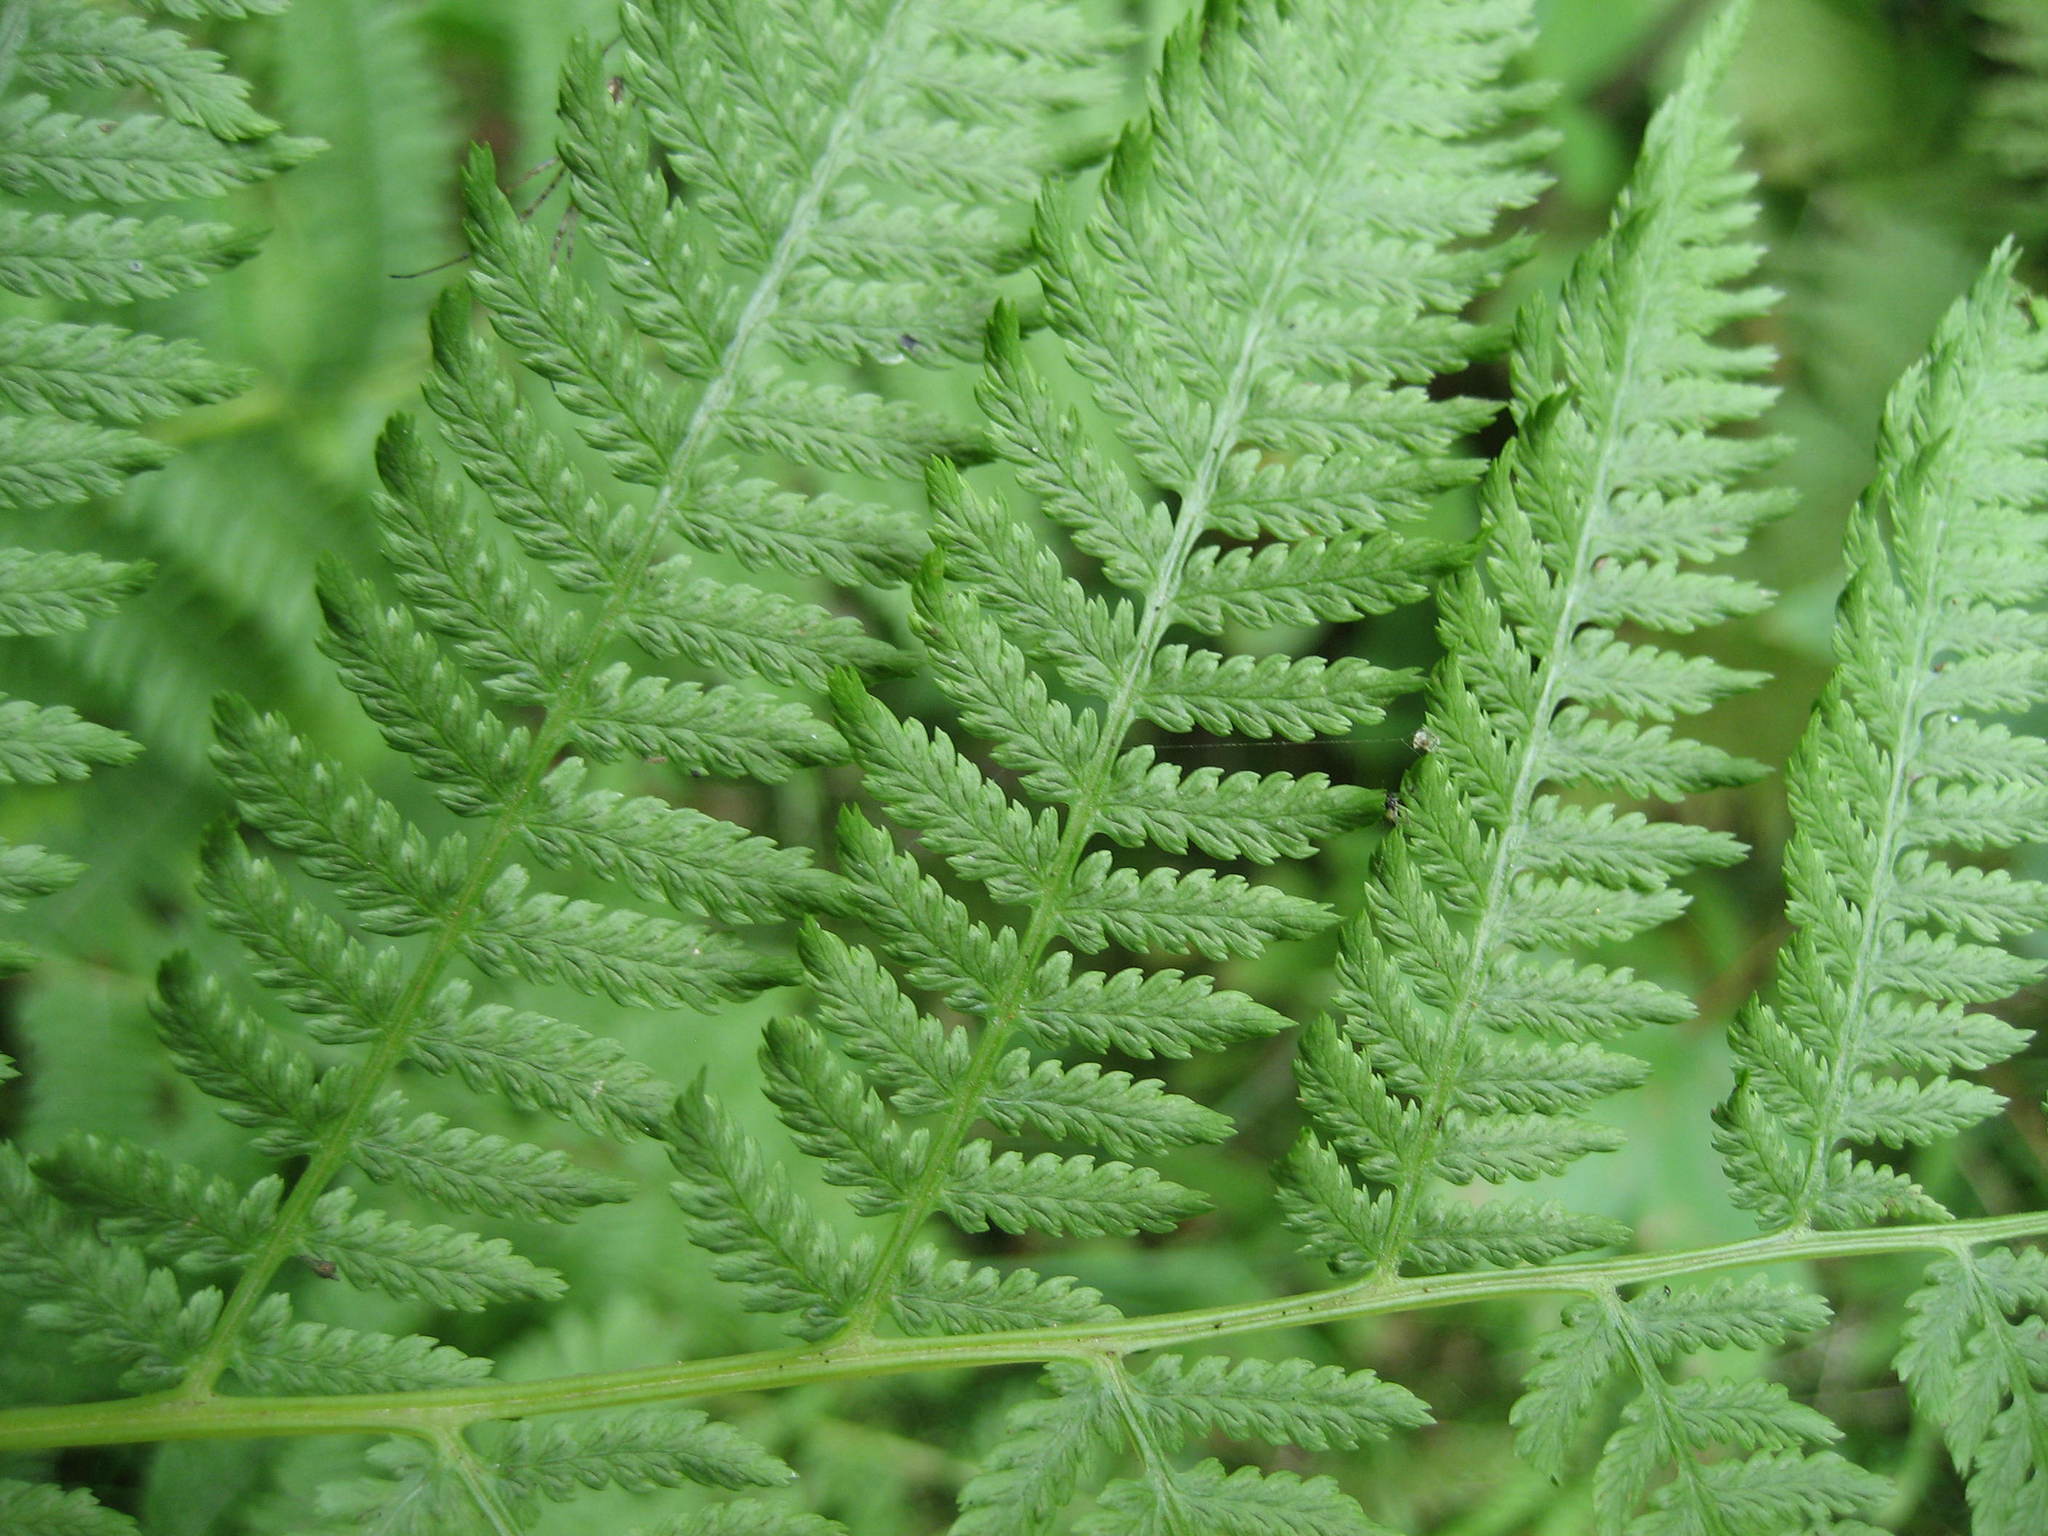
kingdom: Plantae
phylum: Tracheophyta
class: Polypodiopsida
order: Polypodiales
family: Athyriaceae
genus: Athyrium
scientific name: Athyrium angustum
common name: Northern lady fern
